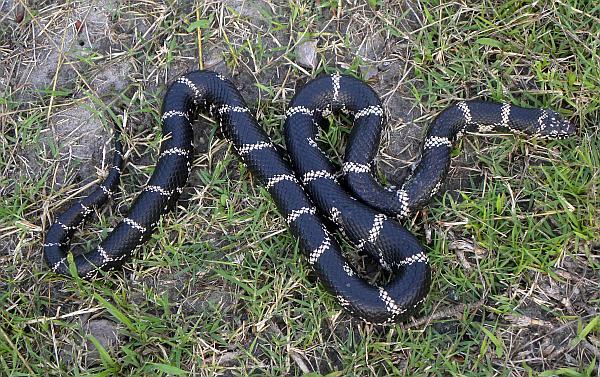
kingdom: Animalia
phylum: Chordata
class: Squamata
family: Colubridae
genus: Lampropeltis
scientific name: Lampropeltis getula
